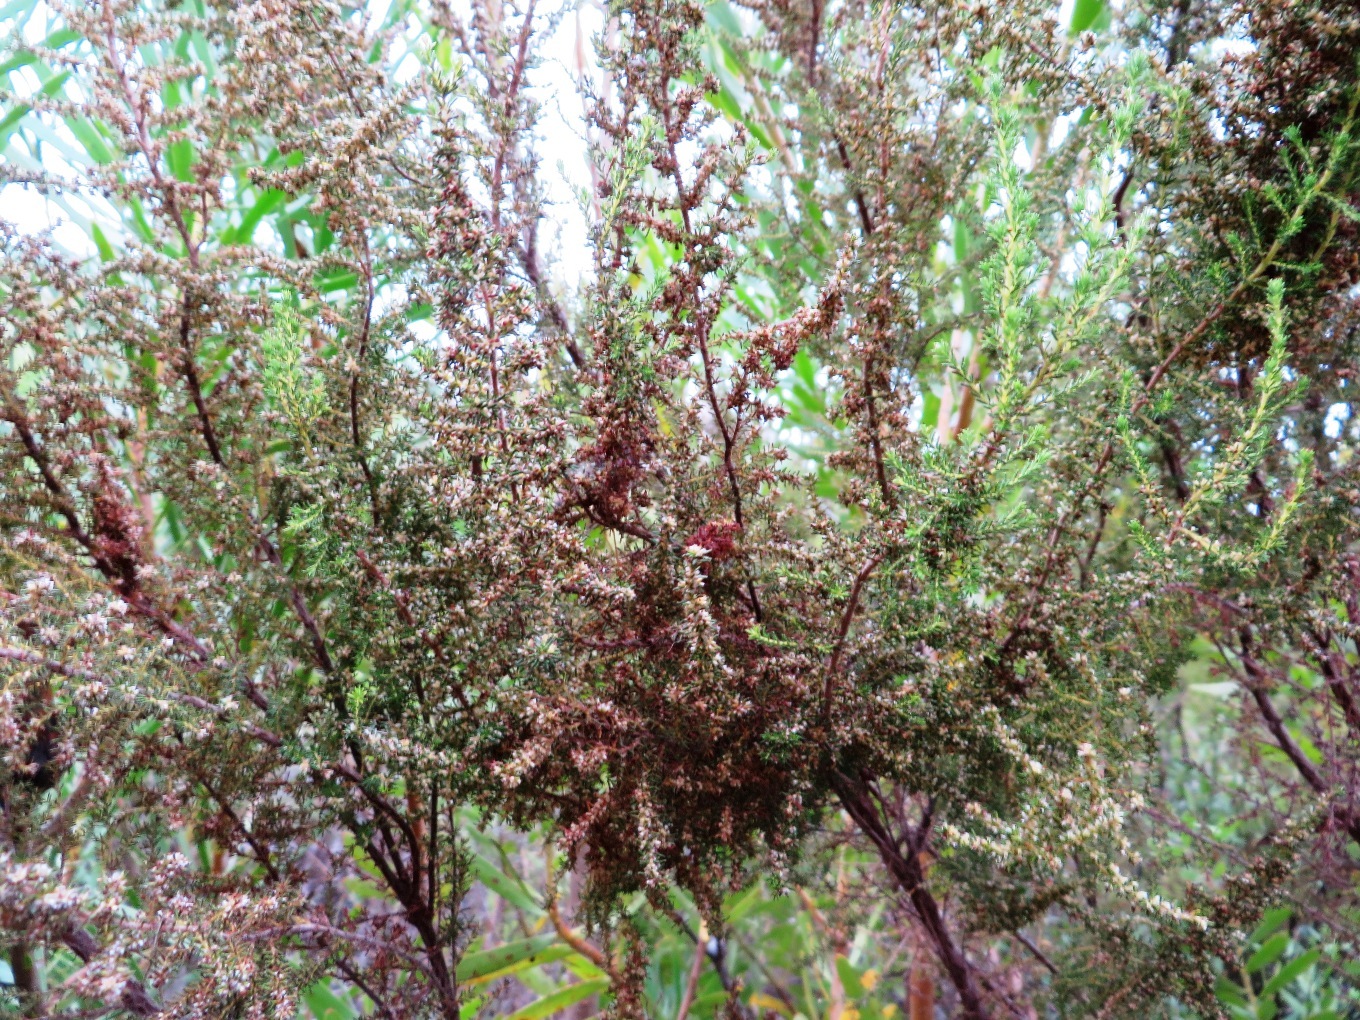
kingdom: Plantae
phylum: Tracheophyta
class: Magnoliopsida
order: Ericales
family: Ericaceae
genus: Erica
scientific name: Erica muscosa
